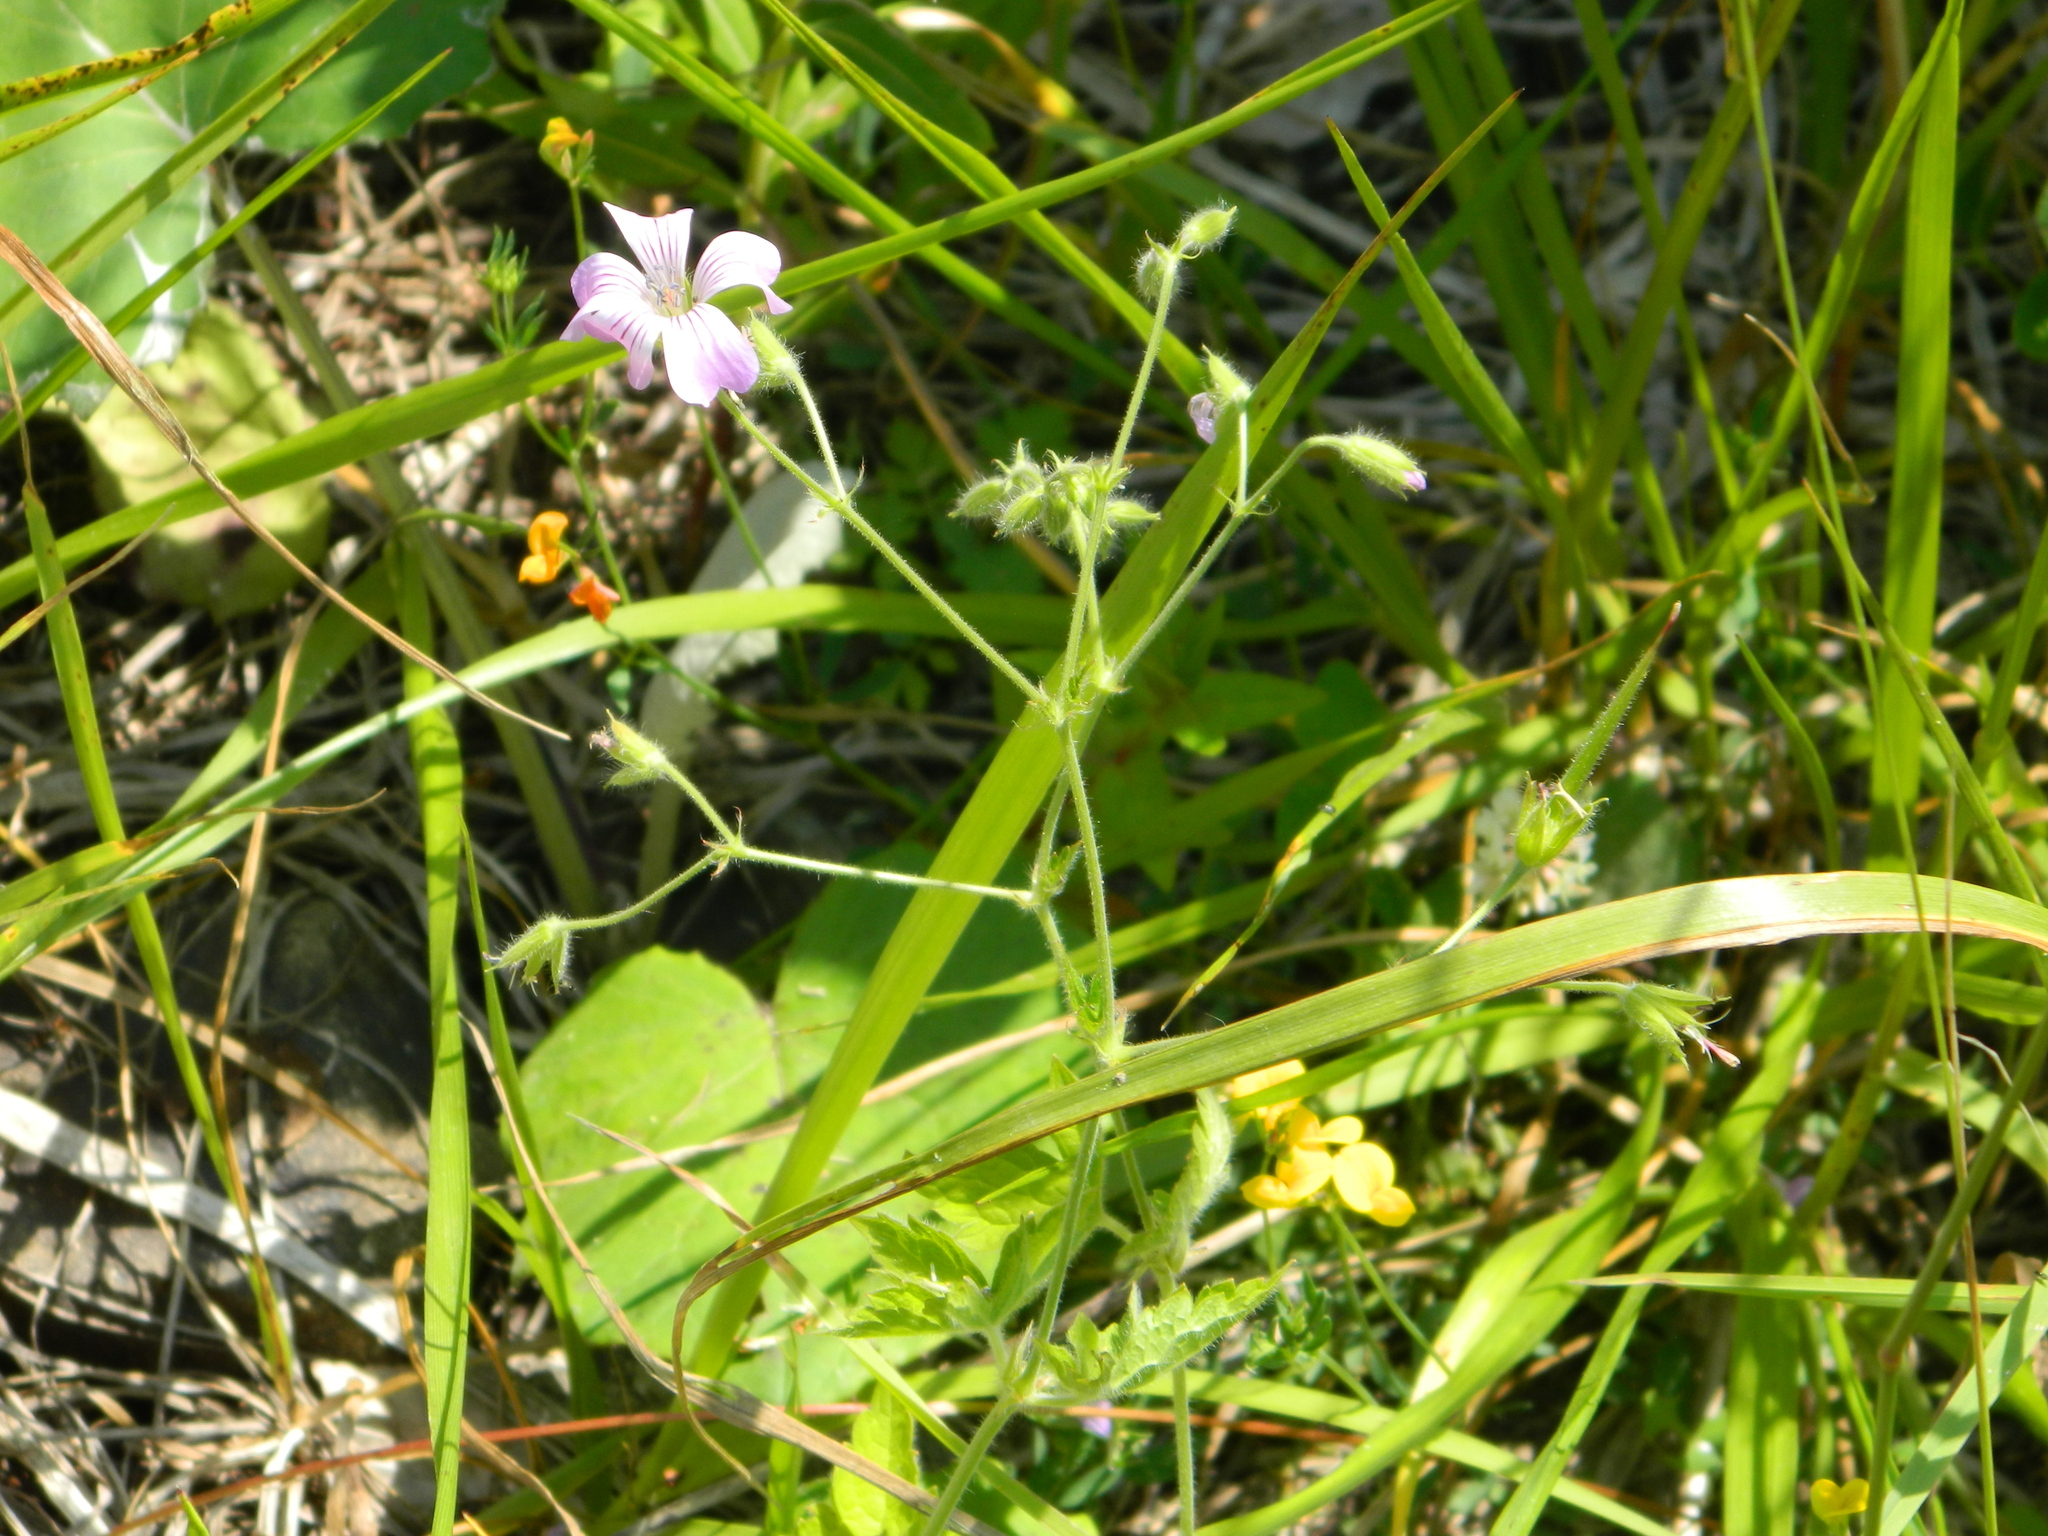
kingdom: Plantae
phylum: Tracheophyta
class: Magnoliopsida
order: Geraniales
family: Geraniaceae
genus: Geranium
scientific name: Geranium gracile
